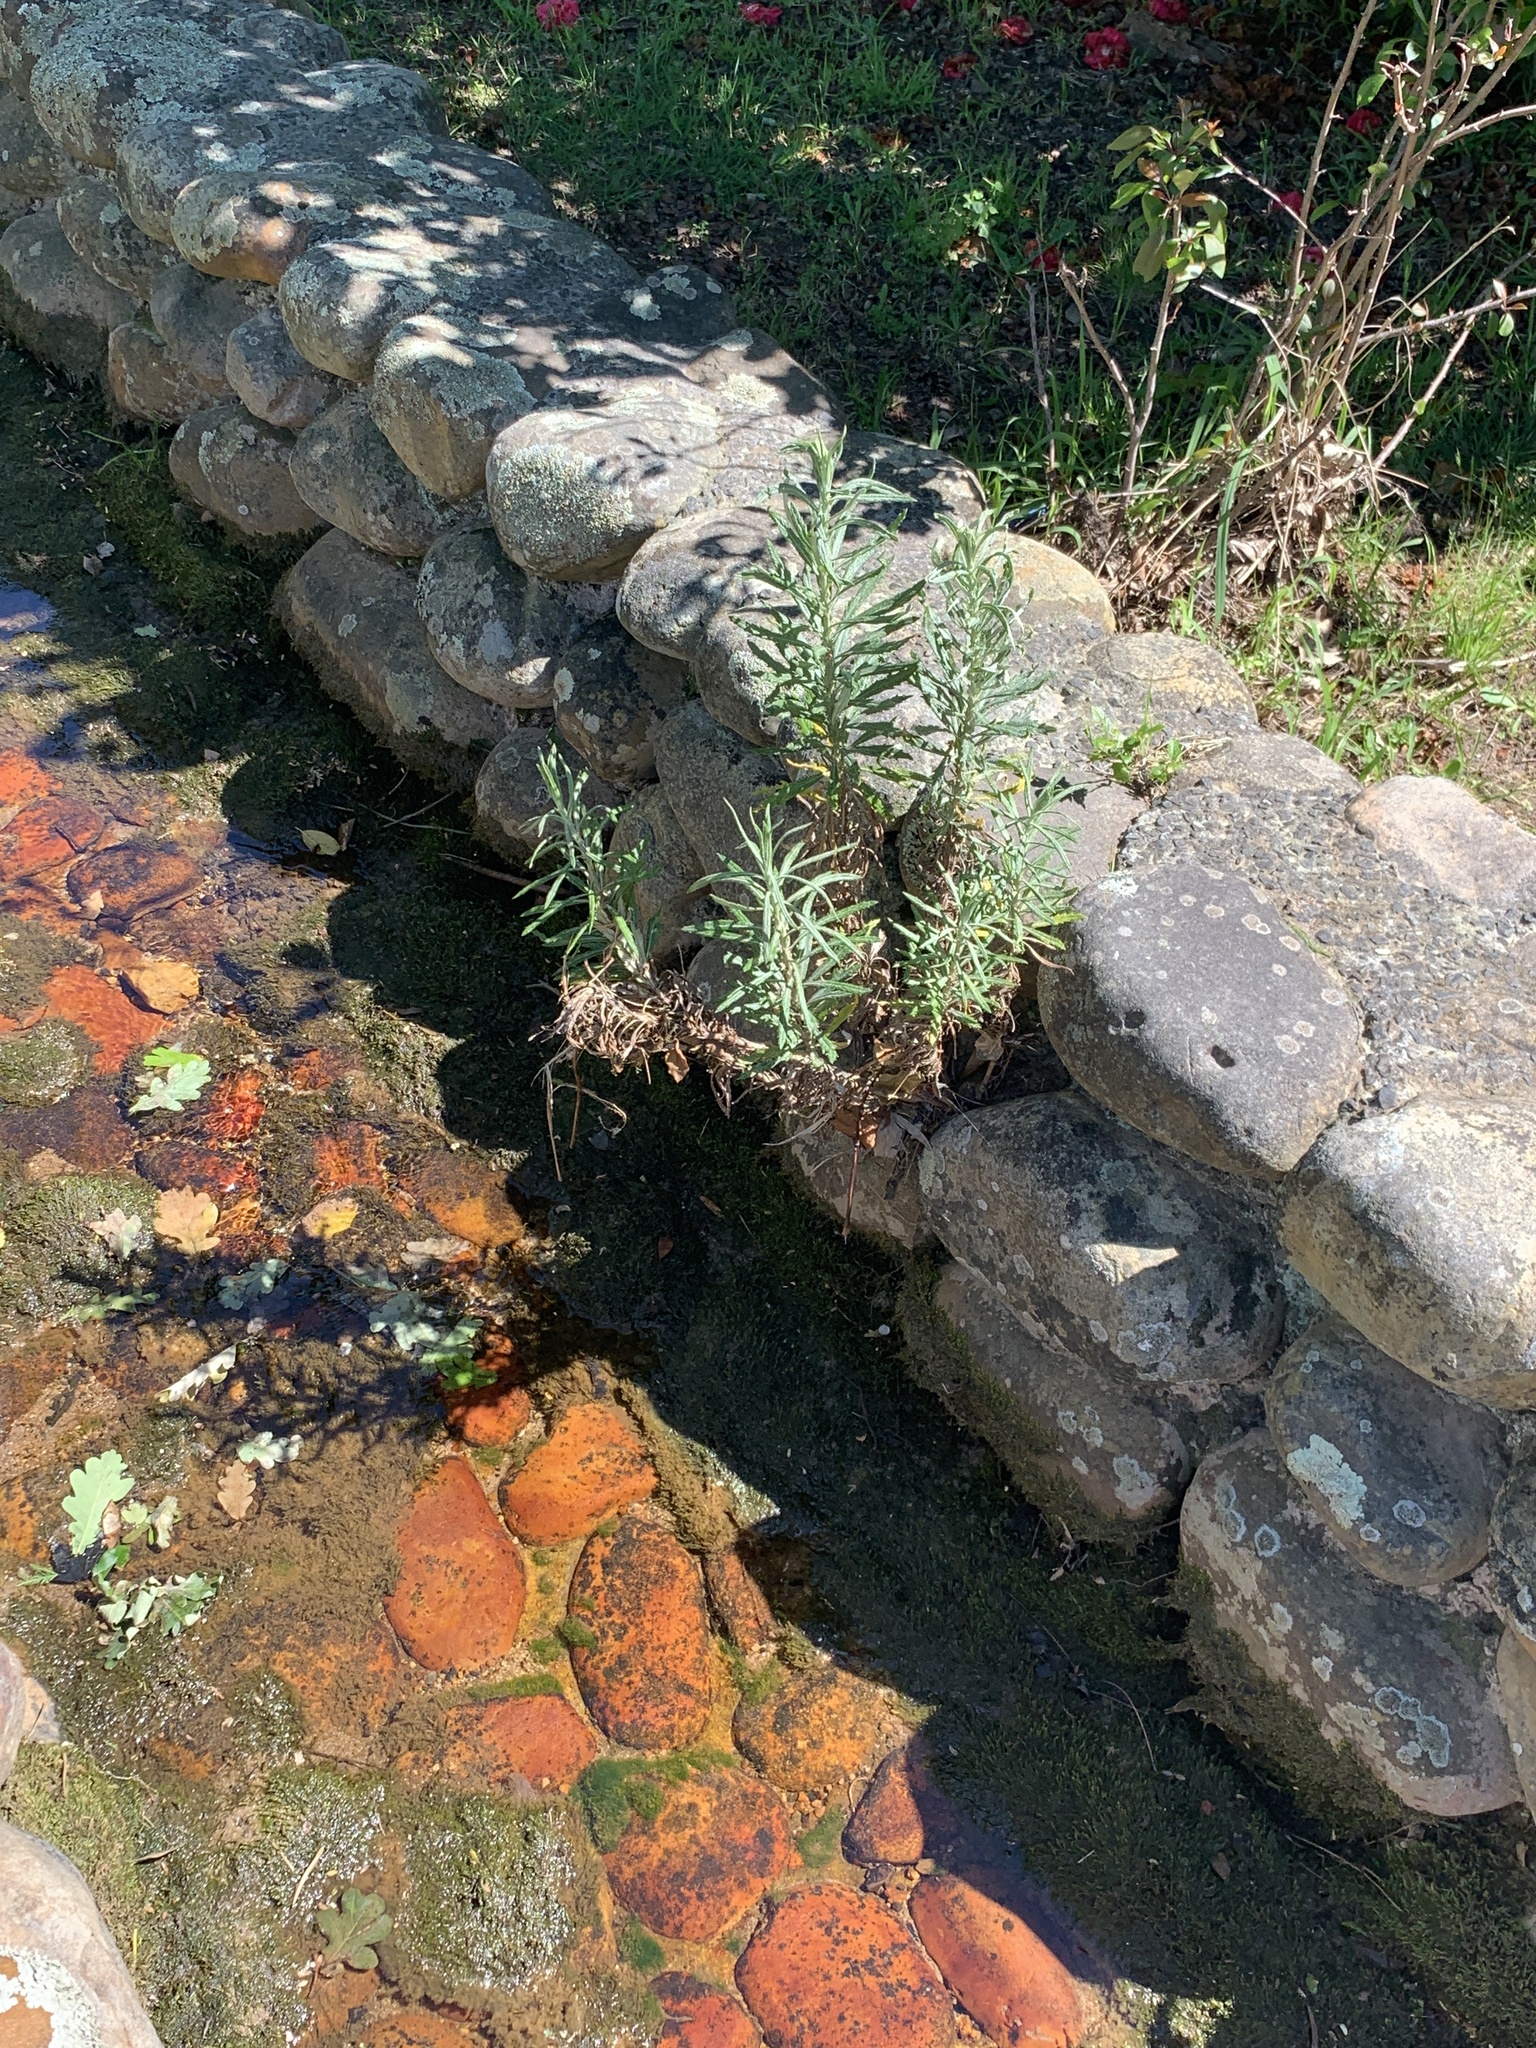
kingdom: Plantae
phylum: Tracheophyta
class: Magnoliopsida
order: Asterales
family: Asteraceae
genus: Senecio
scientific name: Senecio pterophorus
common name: Shoddy ragwort
